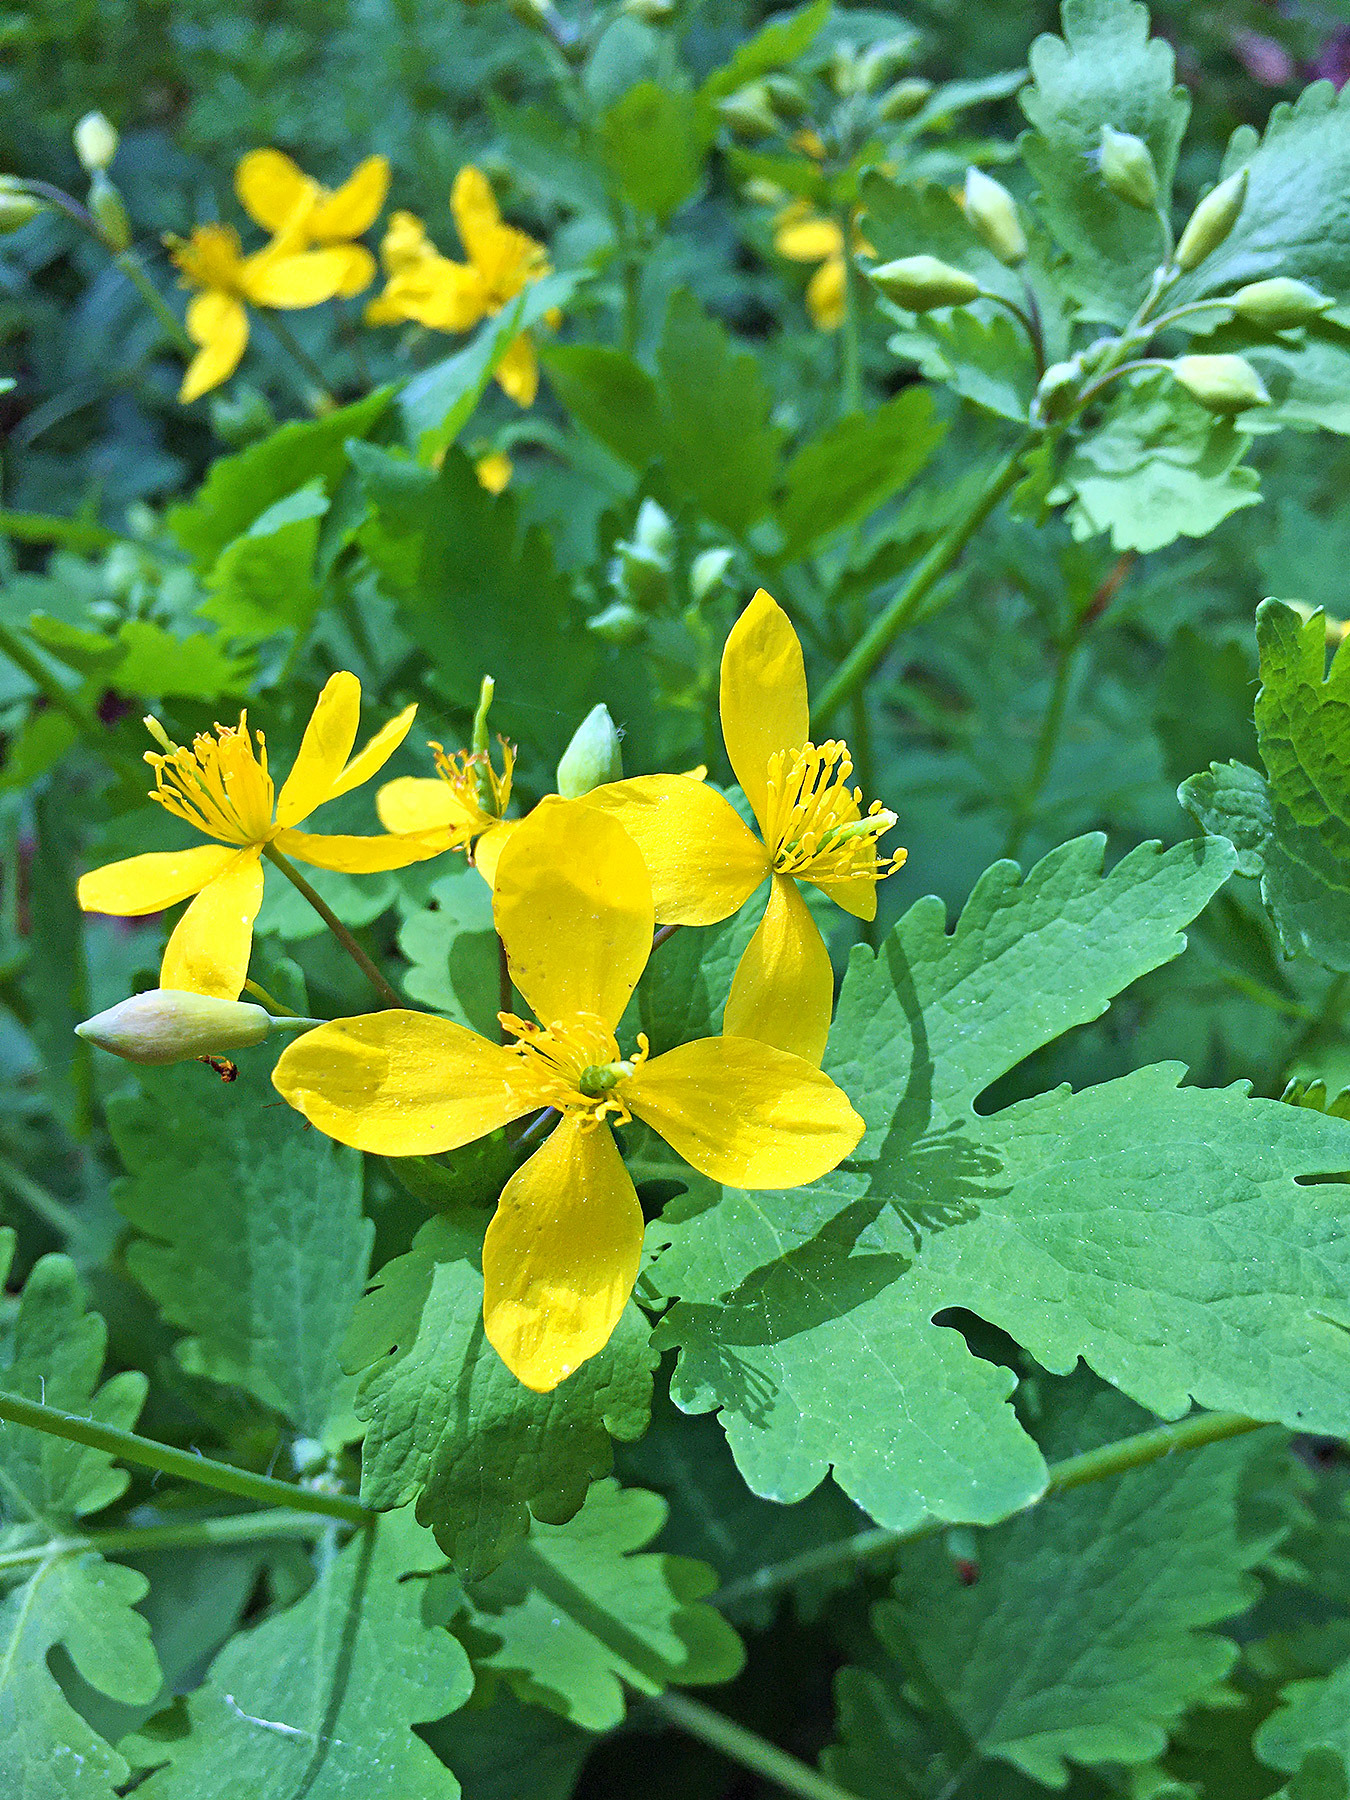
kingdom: Plantae
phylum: Tracheophyta
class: Magnoliopsida
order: Ranunculales
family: Papaveraceae
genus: Chelidonium
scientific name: Chelidonium majus
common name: Greater celandine
